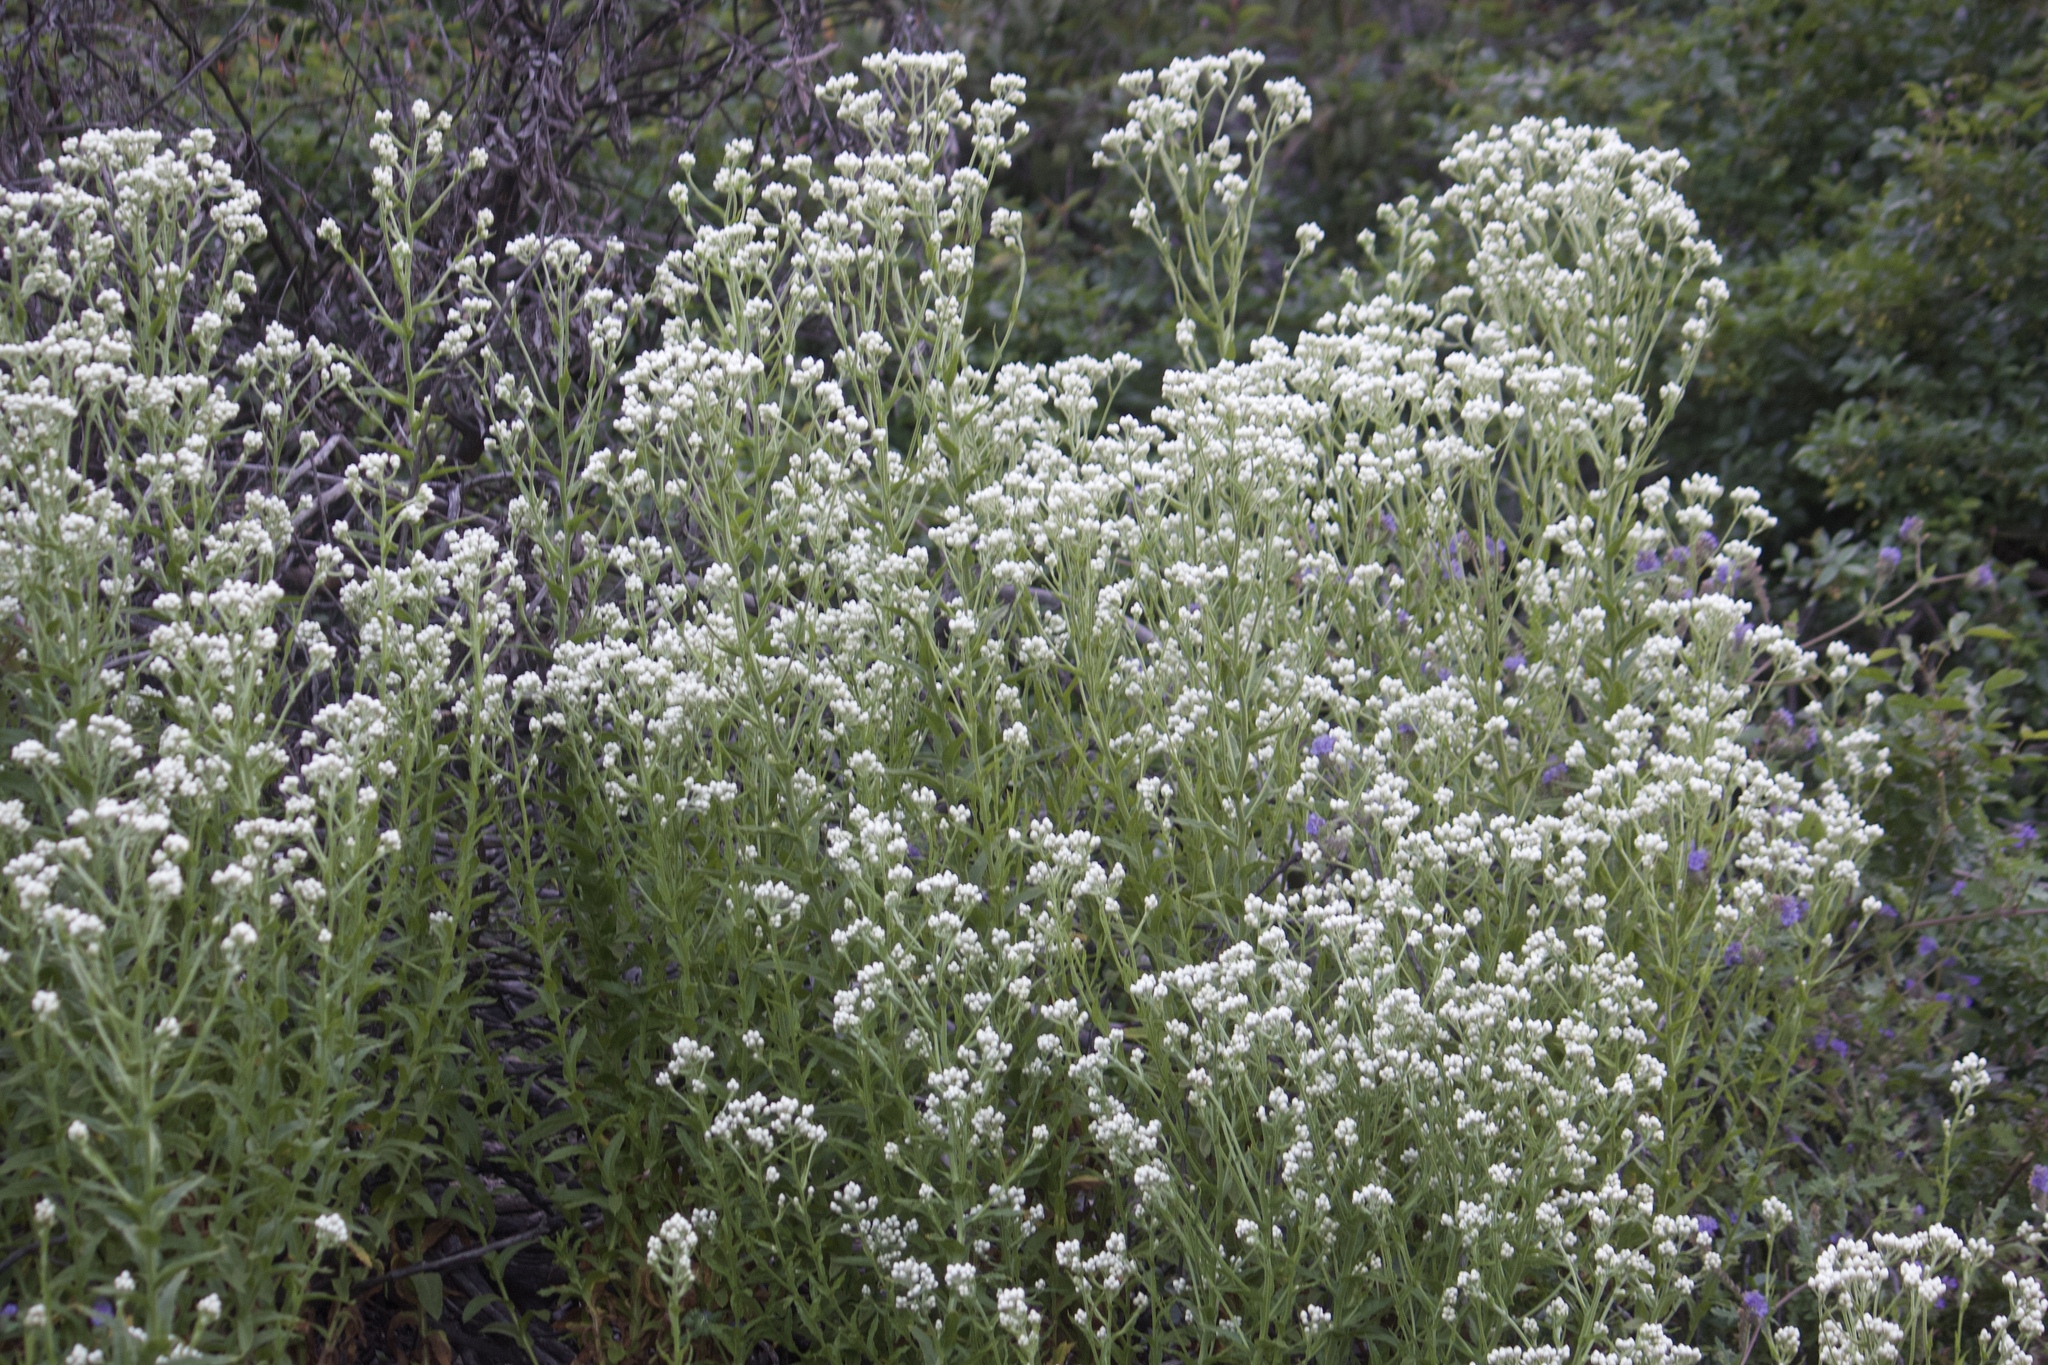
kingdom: Plantae
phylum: Tracheophyta
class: Magnoliopsida
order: Asterales
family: Asteraceae
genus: Pseudognaphalium
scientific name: Pseudognaphalium californicum
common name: California rabbit-tobacco
